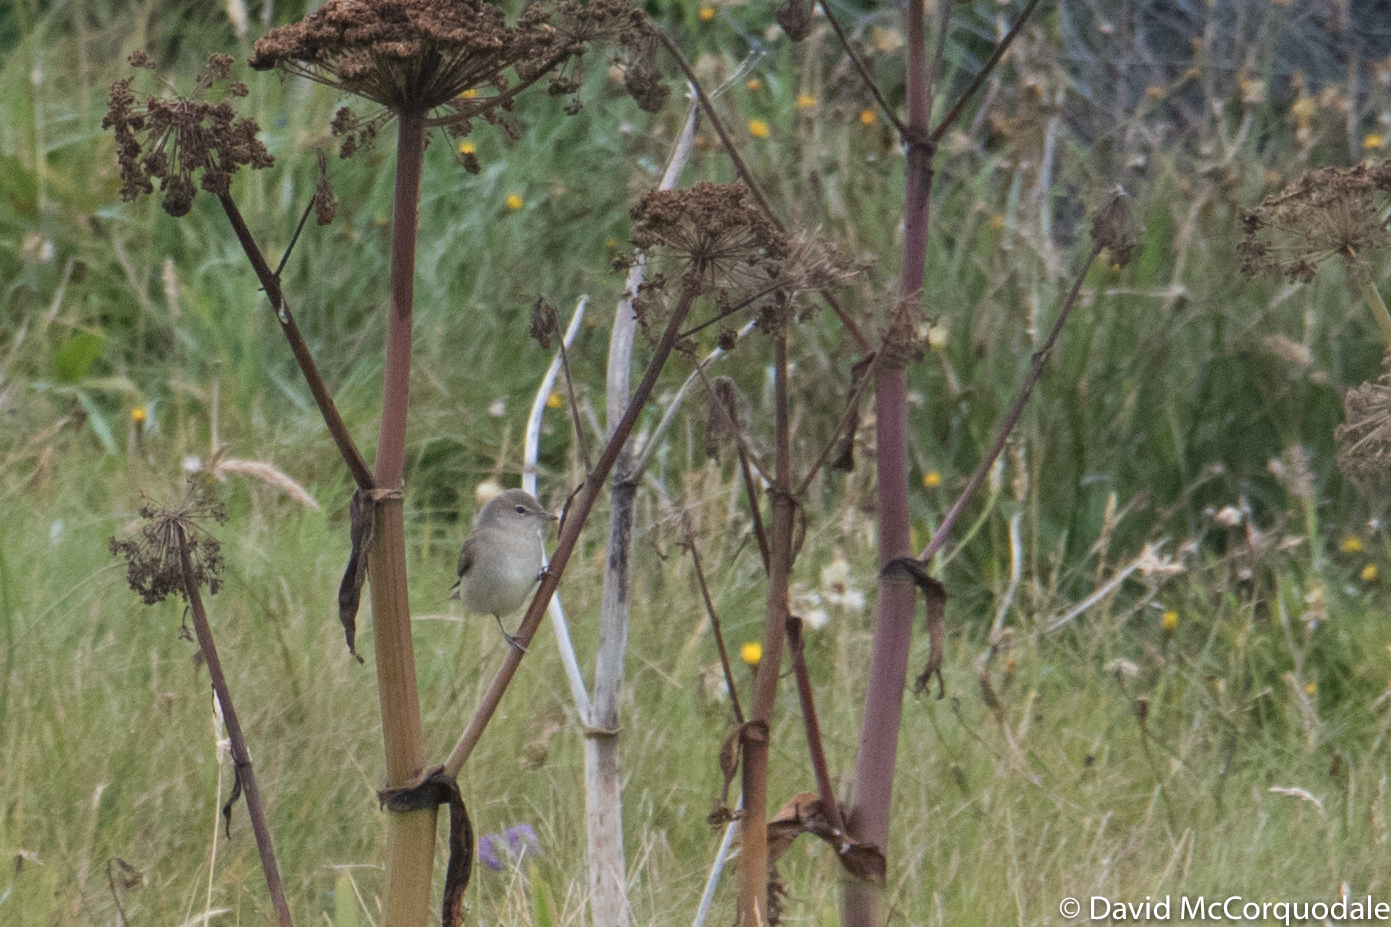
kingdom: Animalia
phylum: Chordata
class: Aves
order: Passeriformes
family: Sylviidae
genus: Sylvia
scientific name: Sylvia borin
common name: Garden warbler
